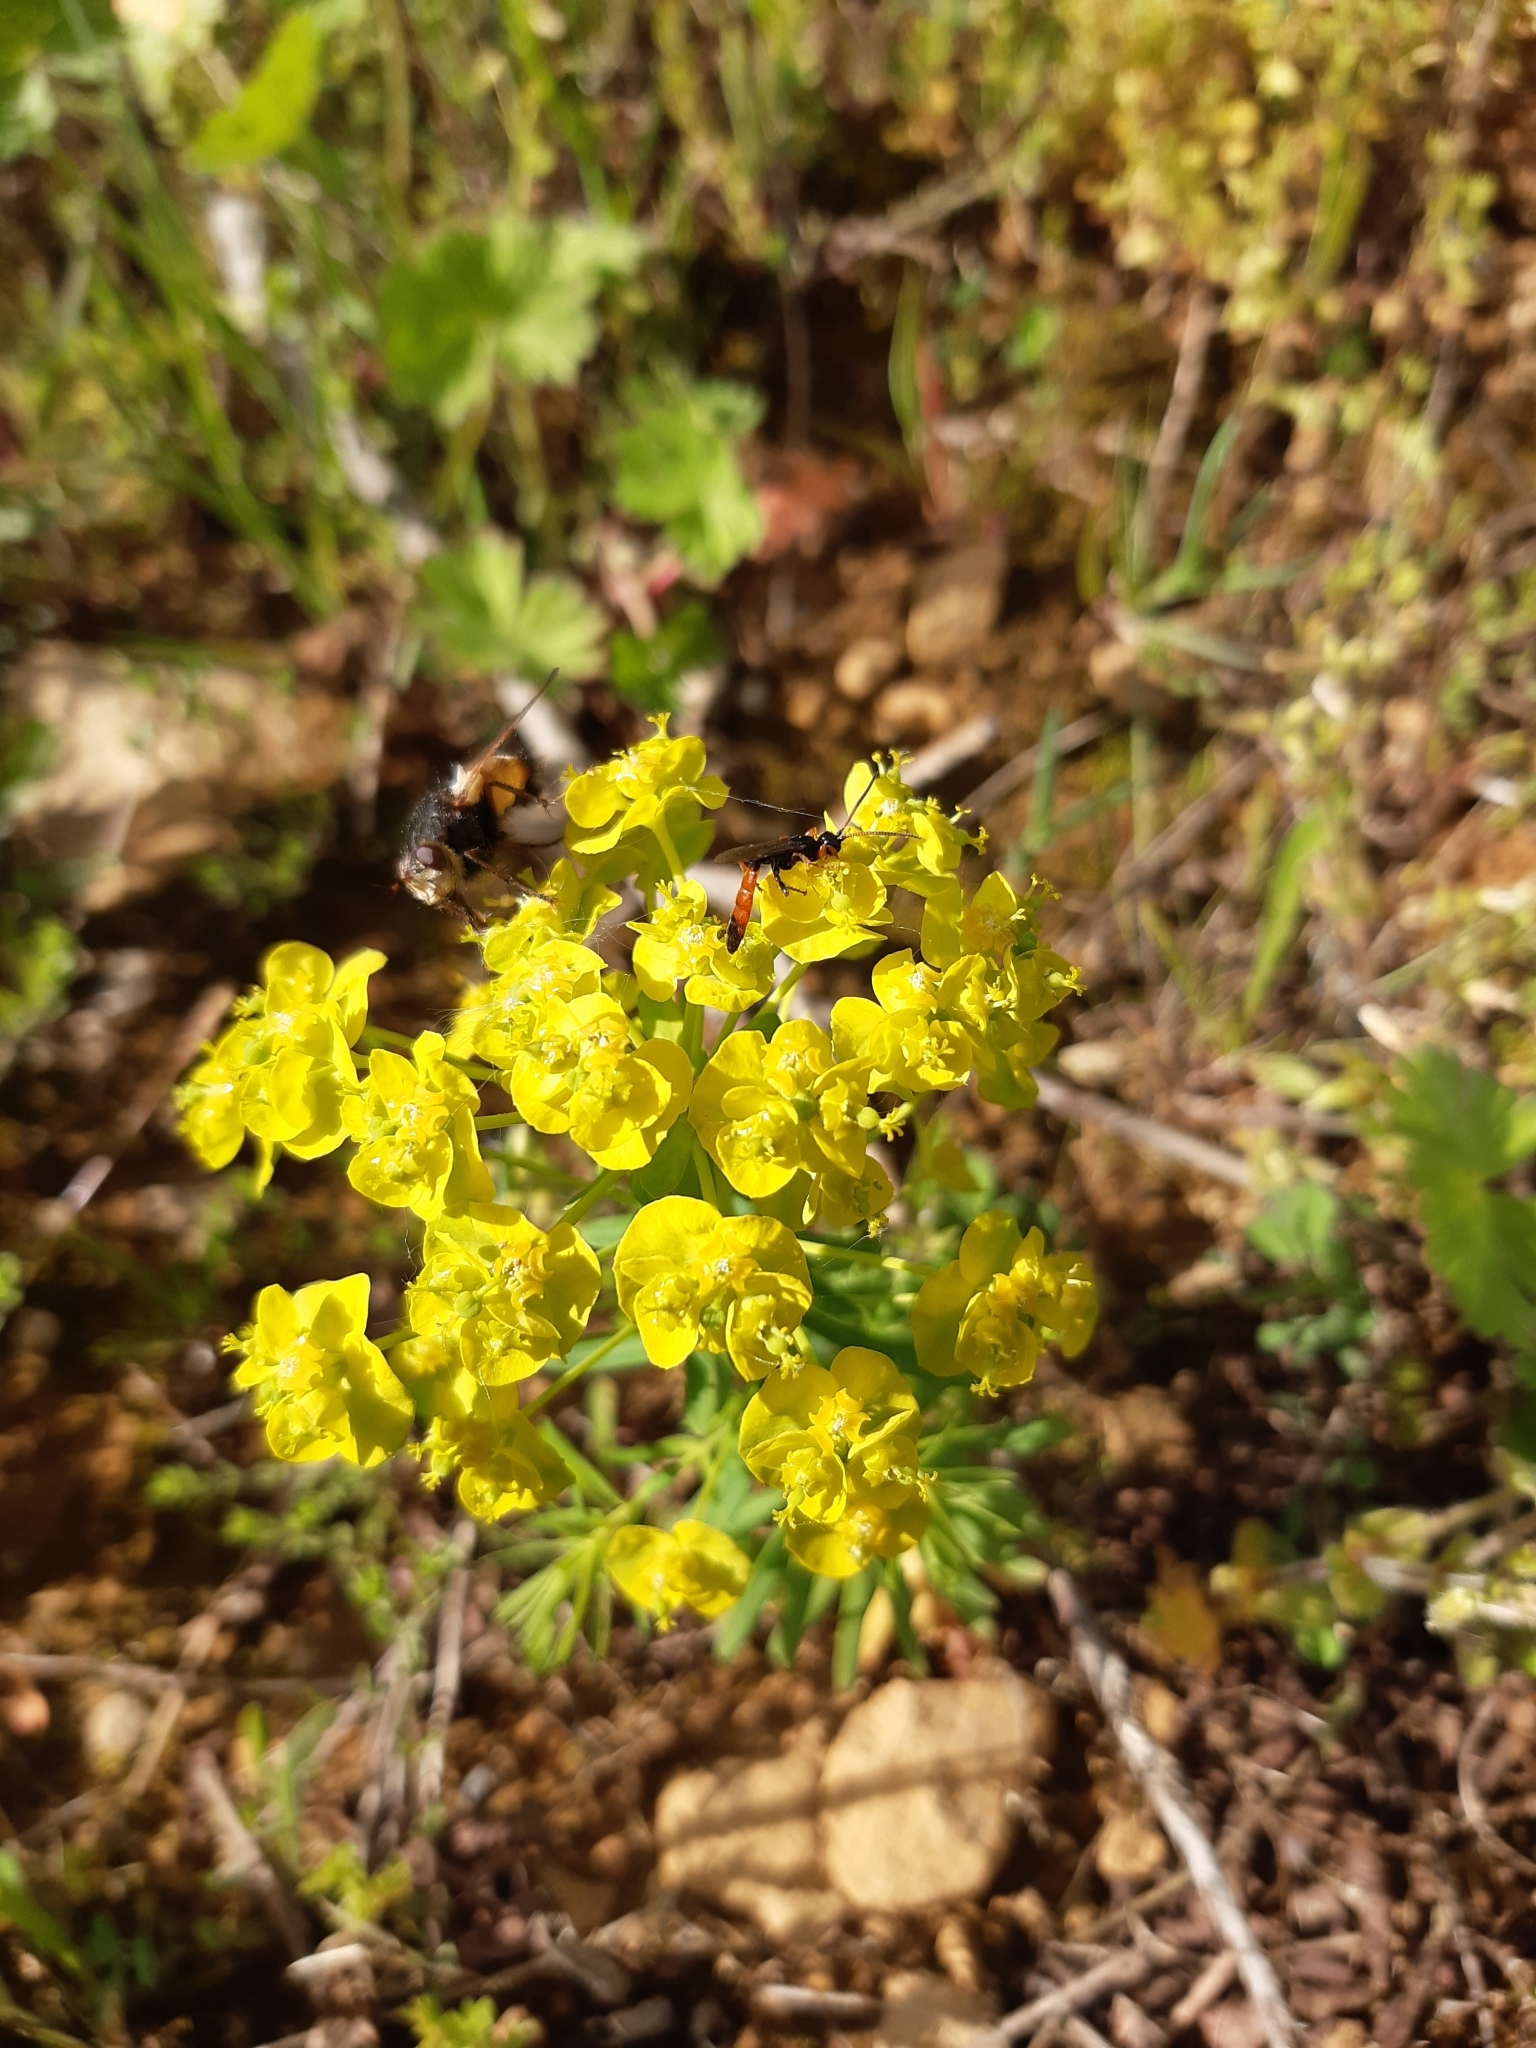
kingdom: Plantae
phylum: Tracheophyta
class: Magnoliopsida
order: Malpighiales
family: Euphorbiaceae
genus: Euphorbia
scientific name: Euphorbia cyparissias
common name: Cypress spurge
